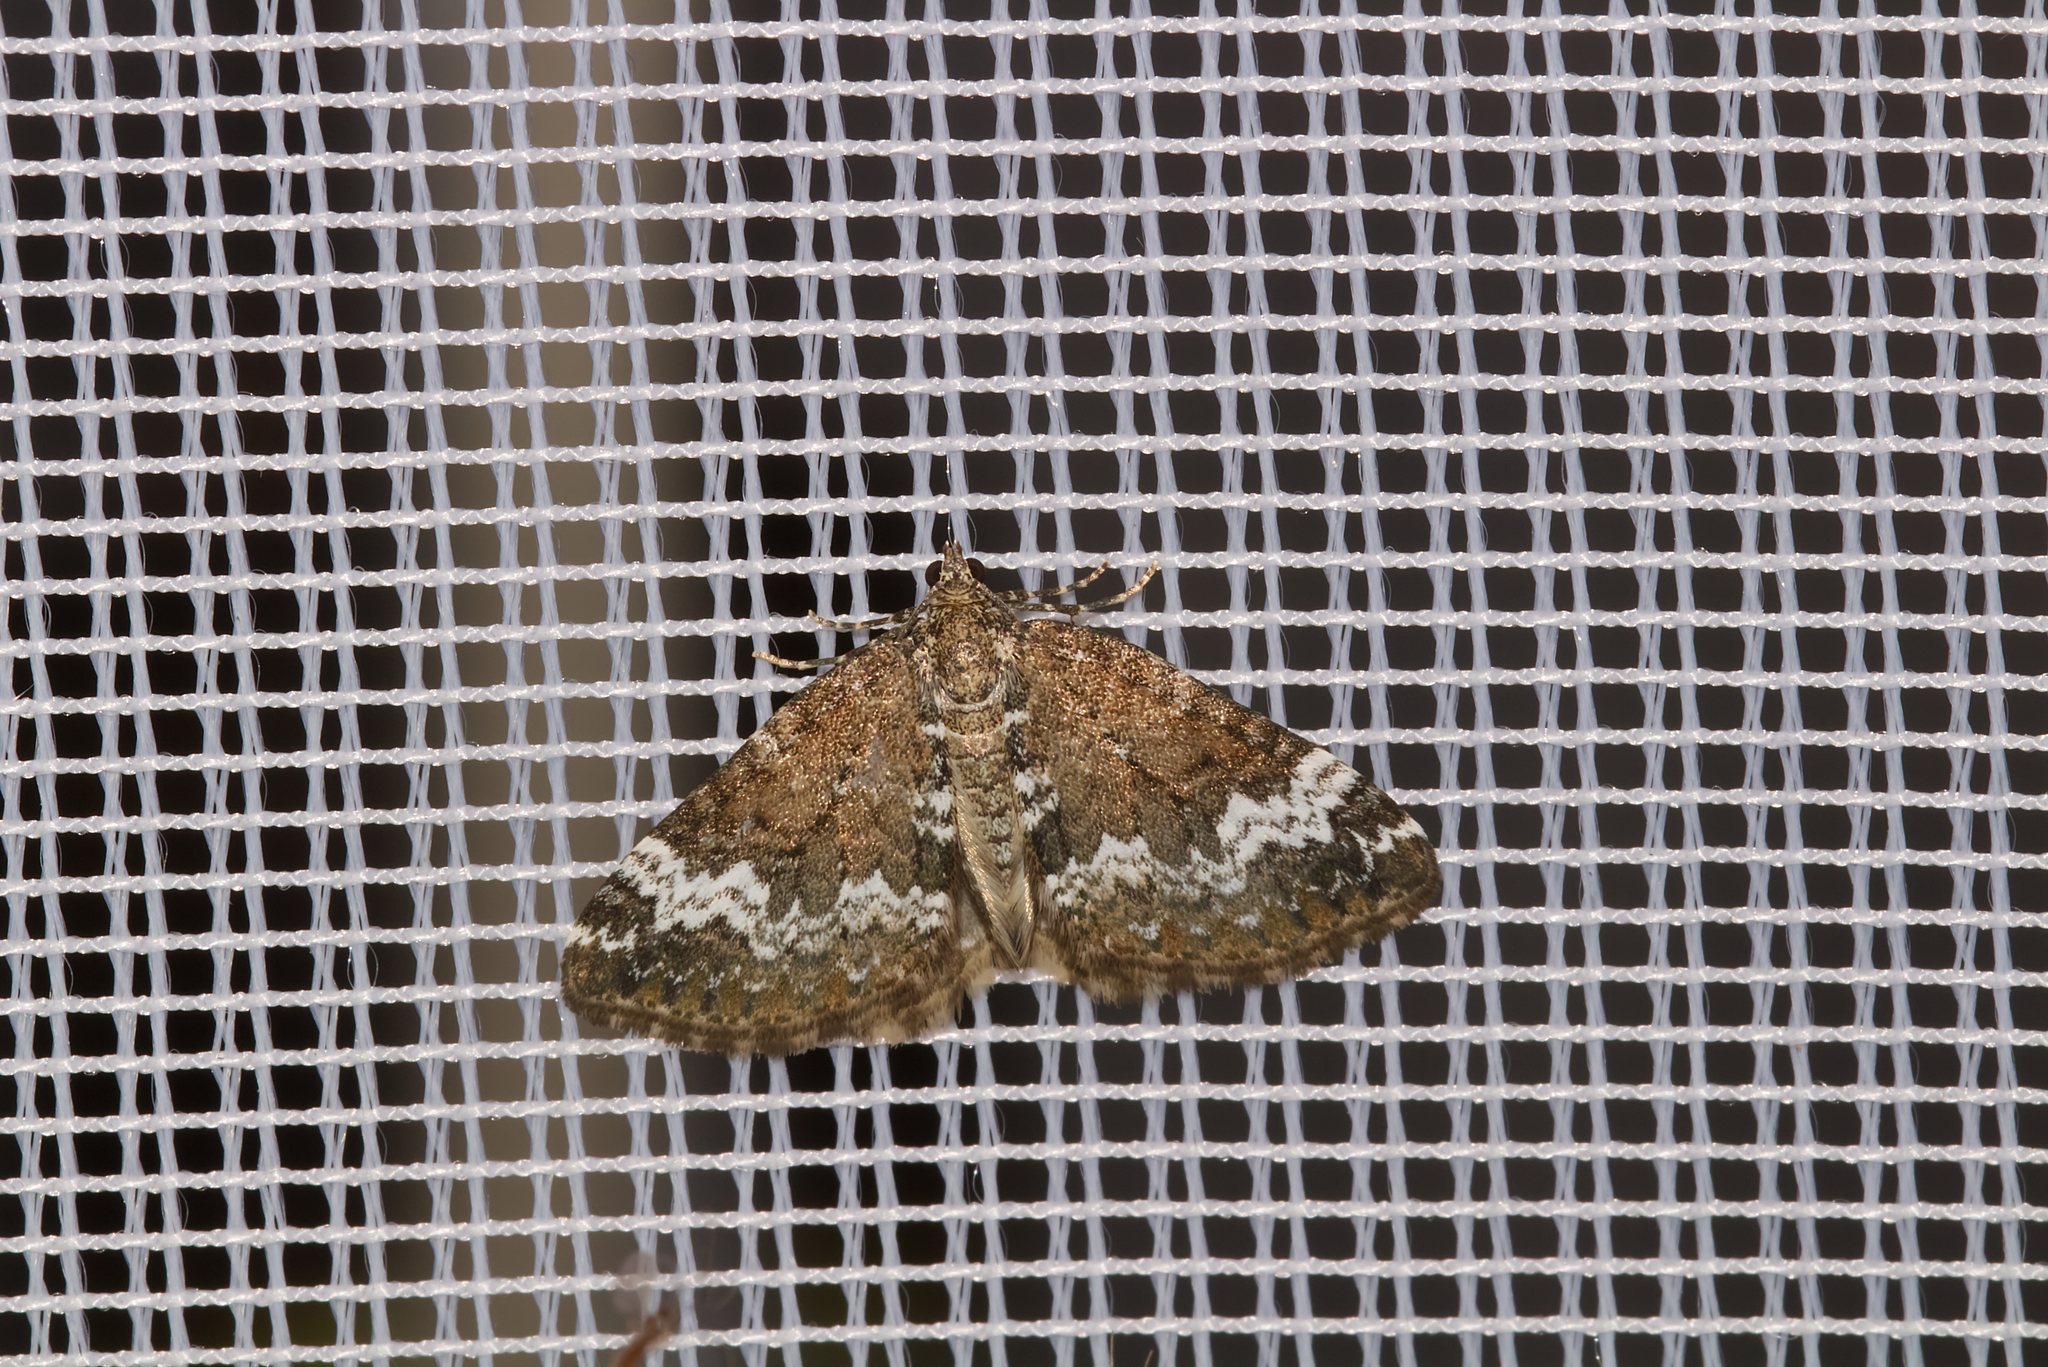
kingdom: Animalia
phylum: Arthropoda
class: Insecta
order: Lepidoptera
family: Geometridae
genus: Perizoma
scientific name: Perizoma alchemillata
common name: Small rivulet
